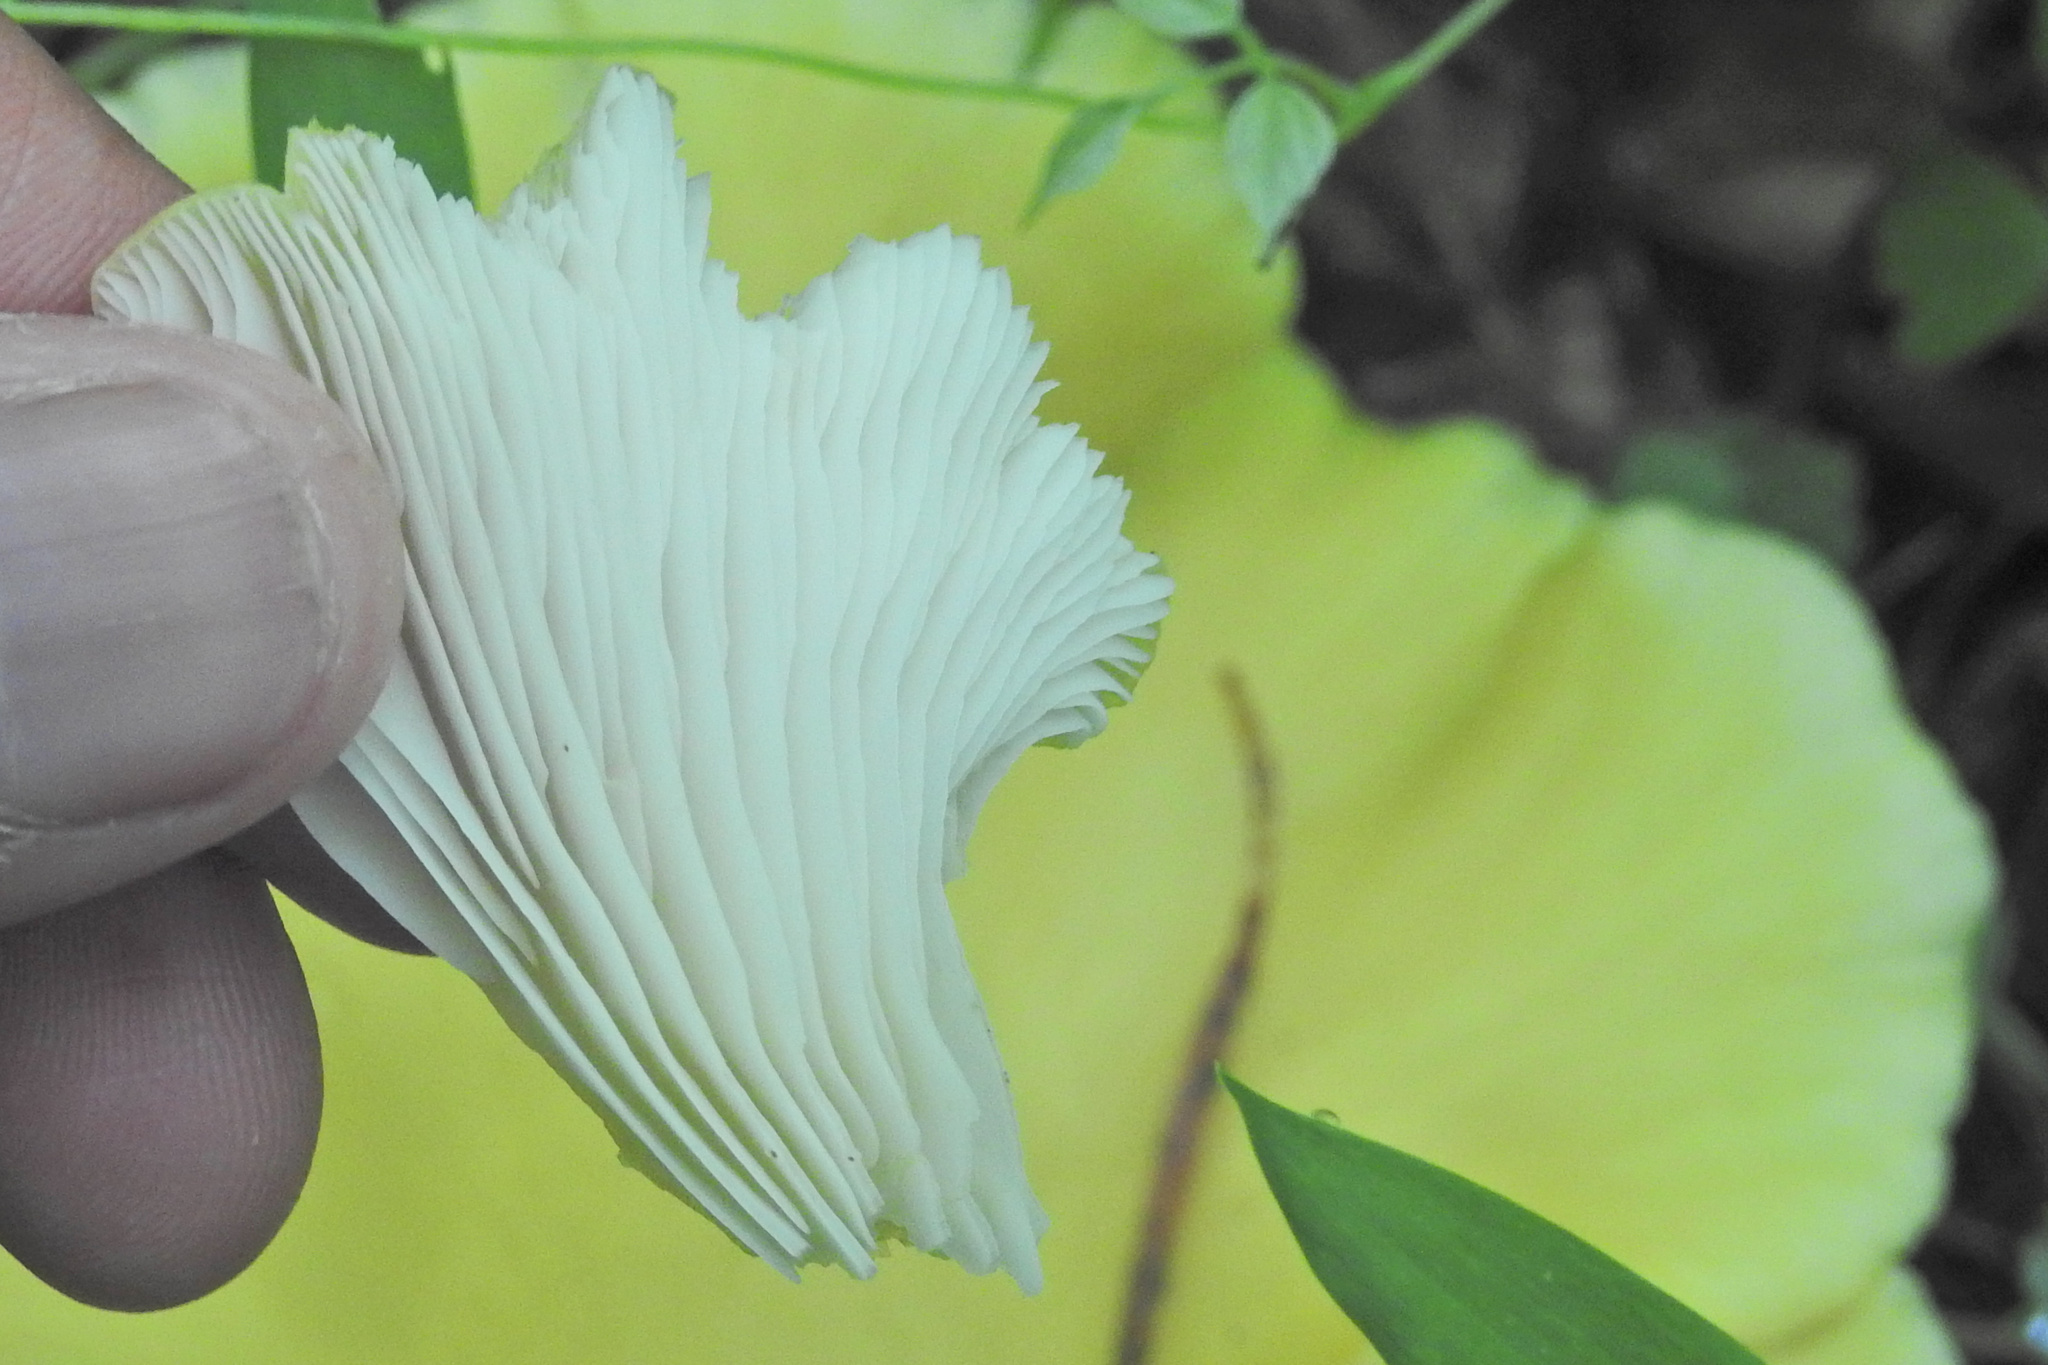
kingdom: Fungi
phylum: Basidiomycota
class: Agaricomycetes
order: Agaricales
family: Pleurotaceae
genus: Pleurotus
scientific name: Pleurotus citrinopileatus
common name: Golden oyster mushroom
